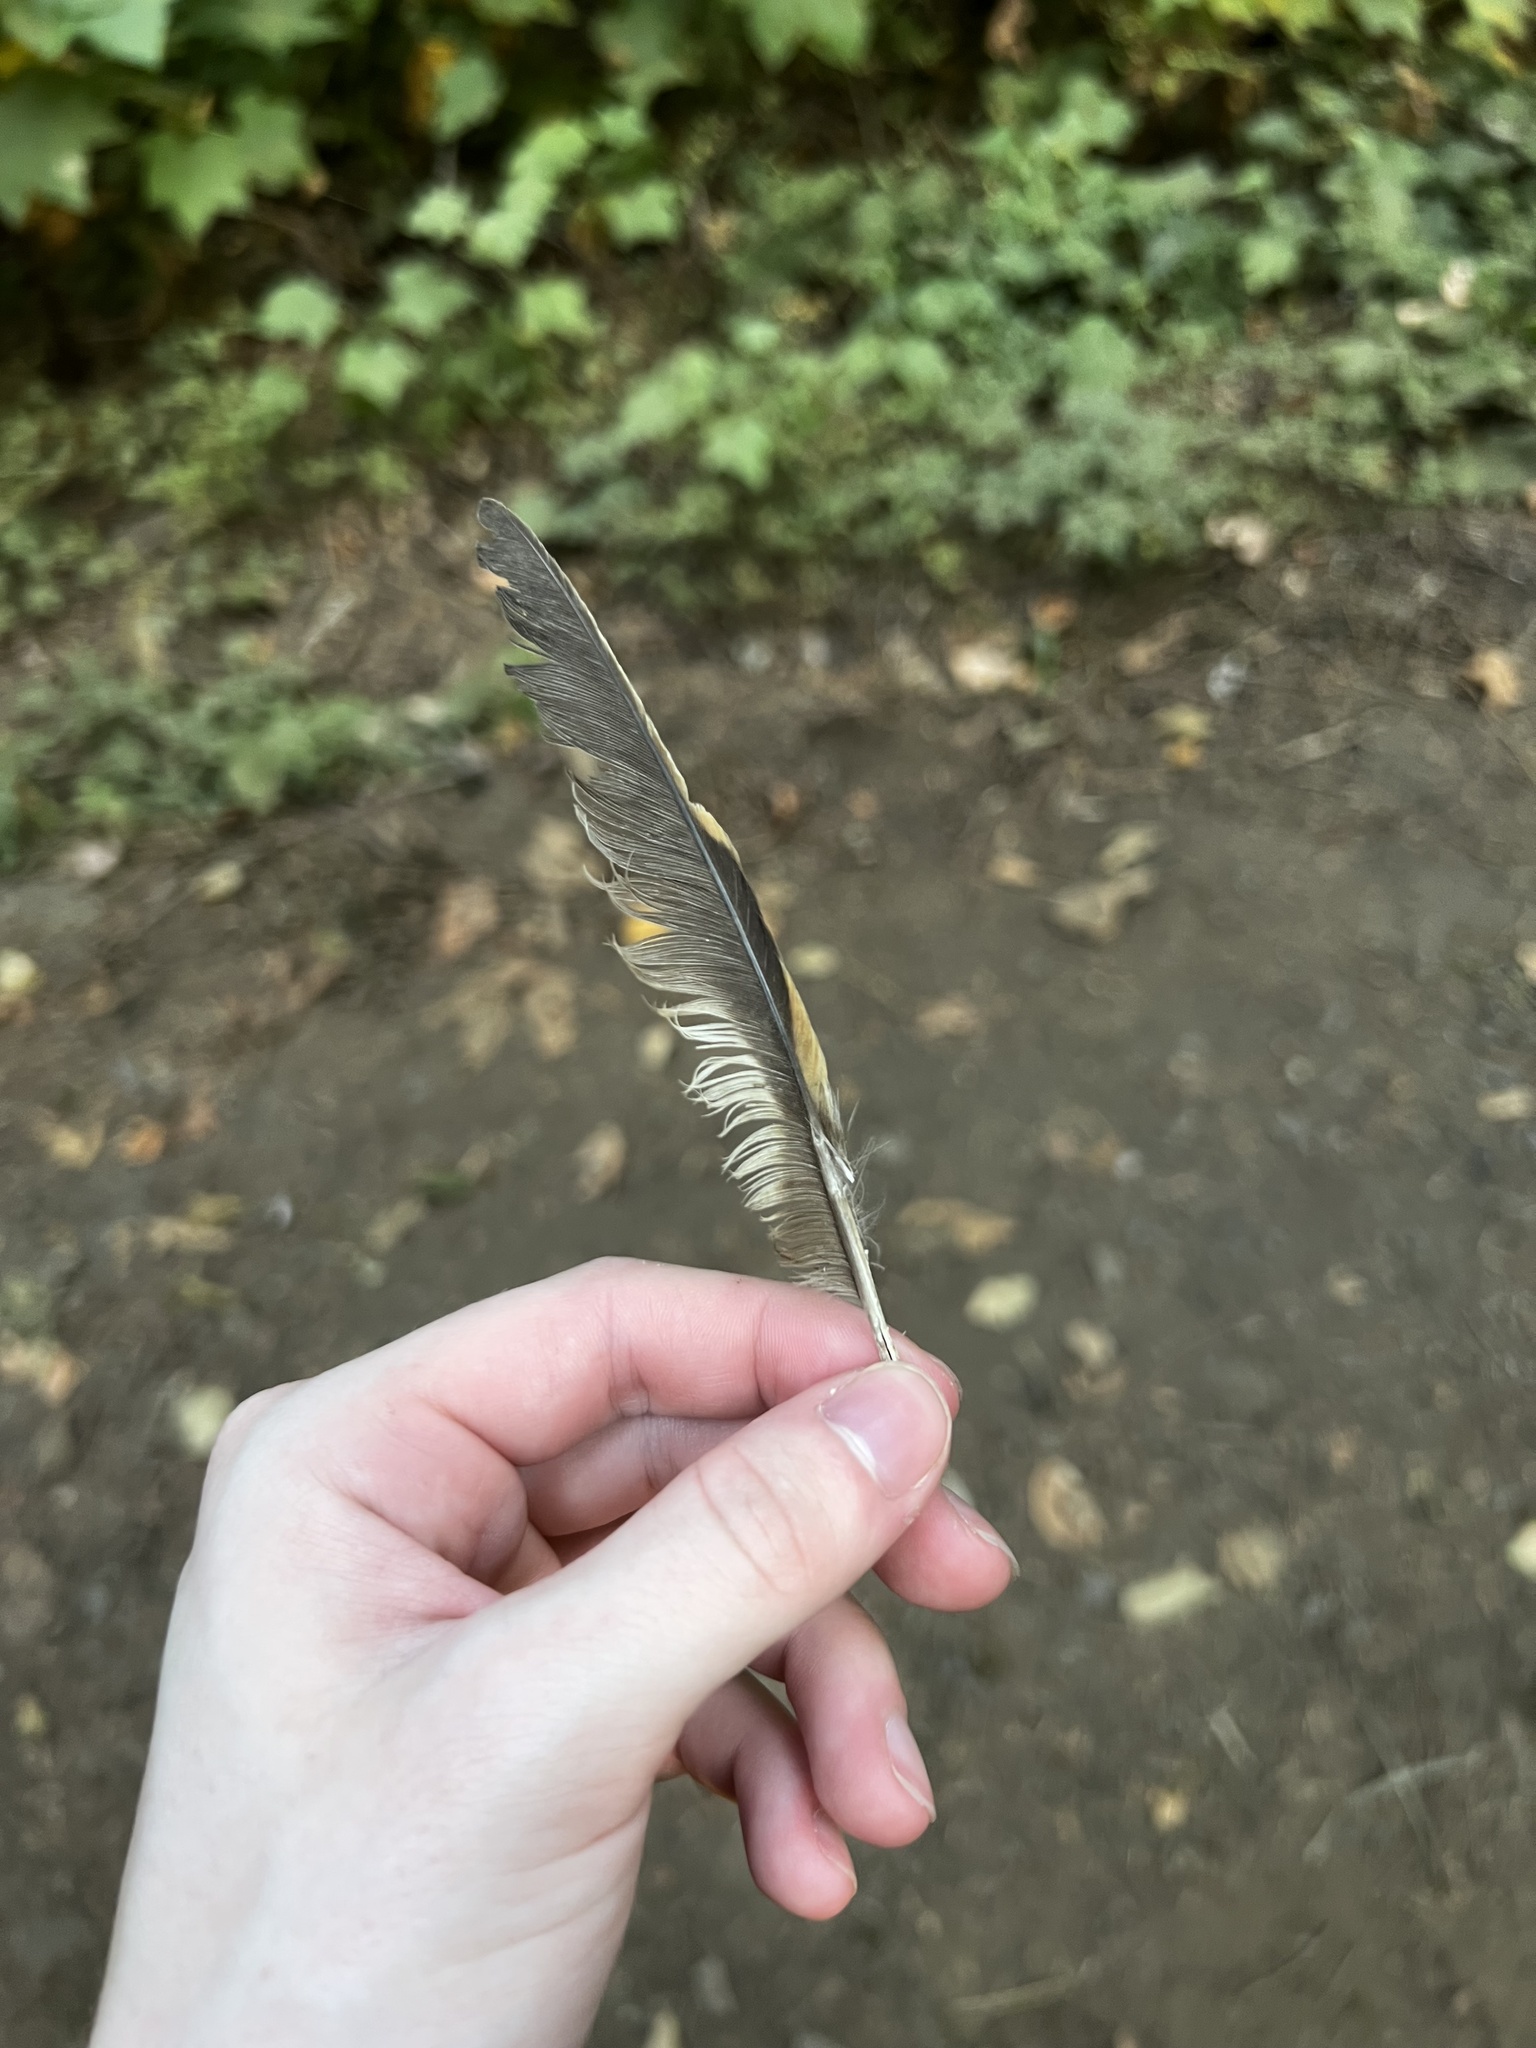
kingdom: Animalia
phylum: Chordata
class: Aves
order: Passeriformes
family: Turdidae
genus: Ixoreus
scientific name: Ixoreus naevius
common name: Varied thrush
